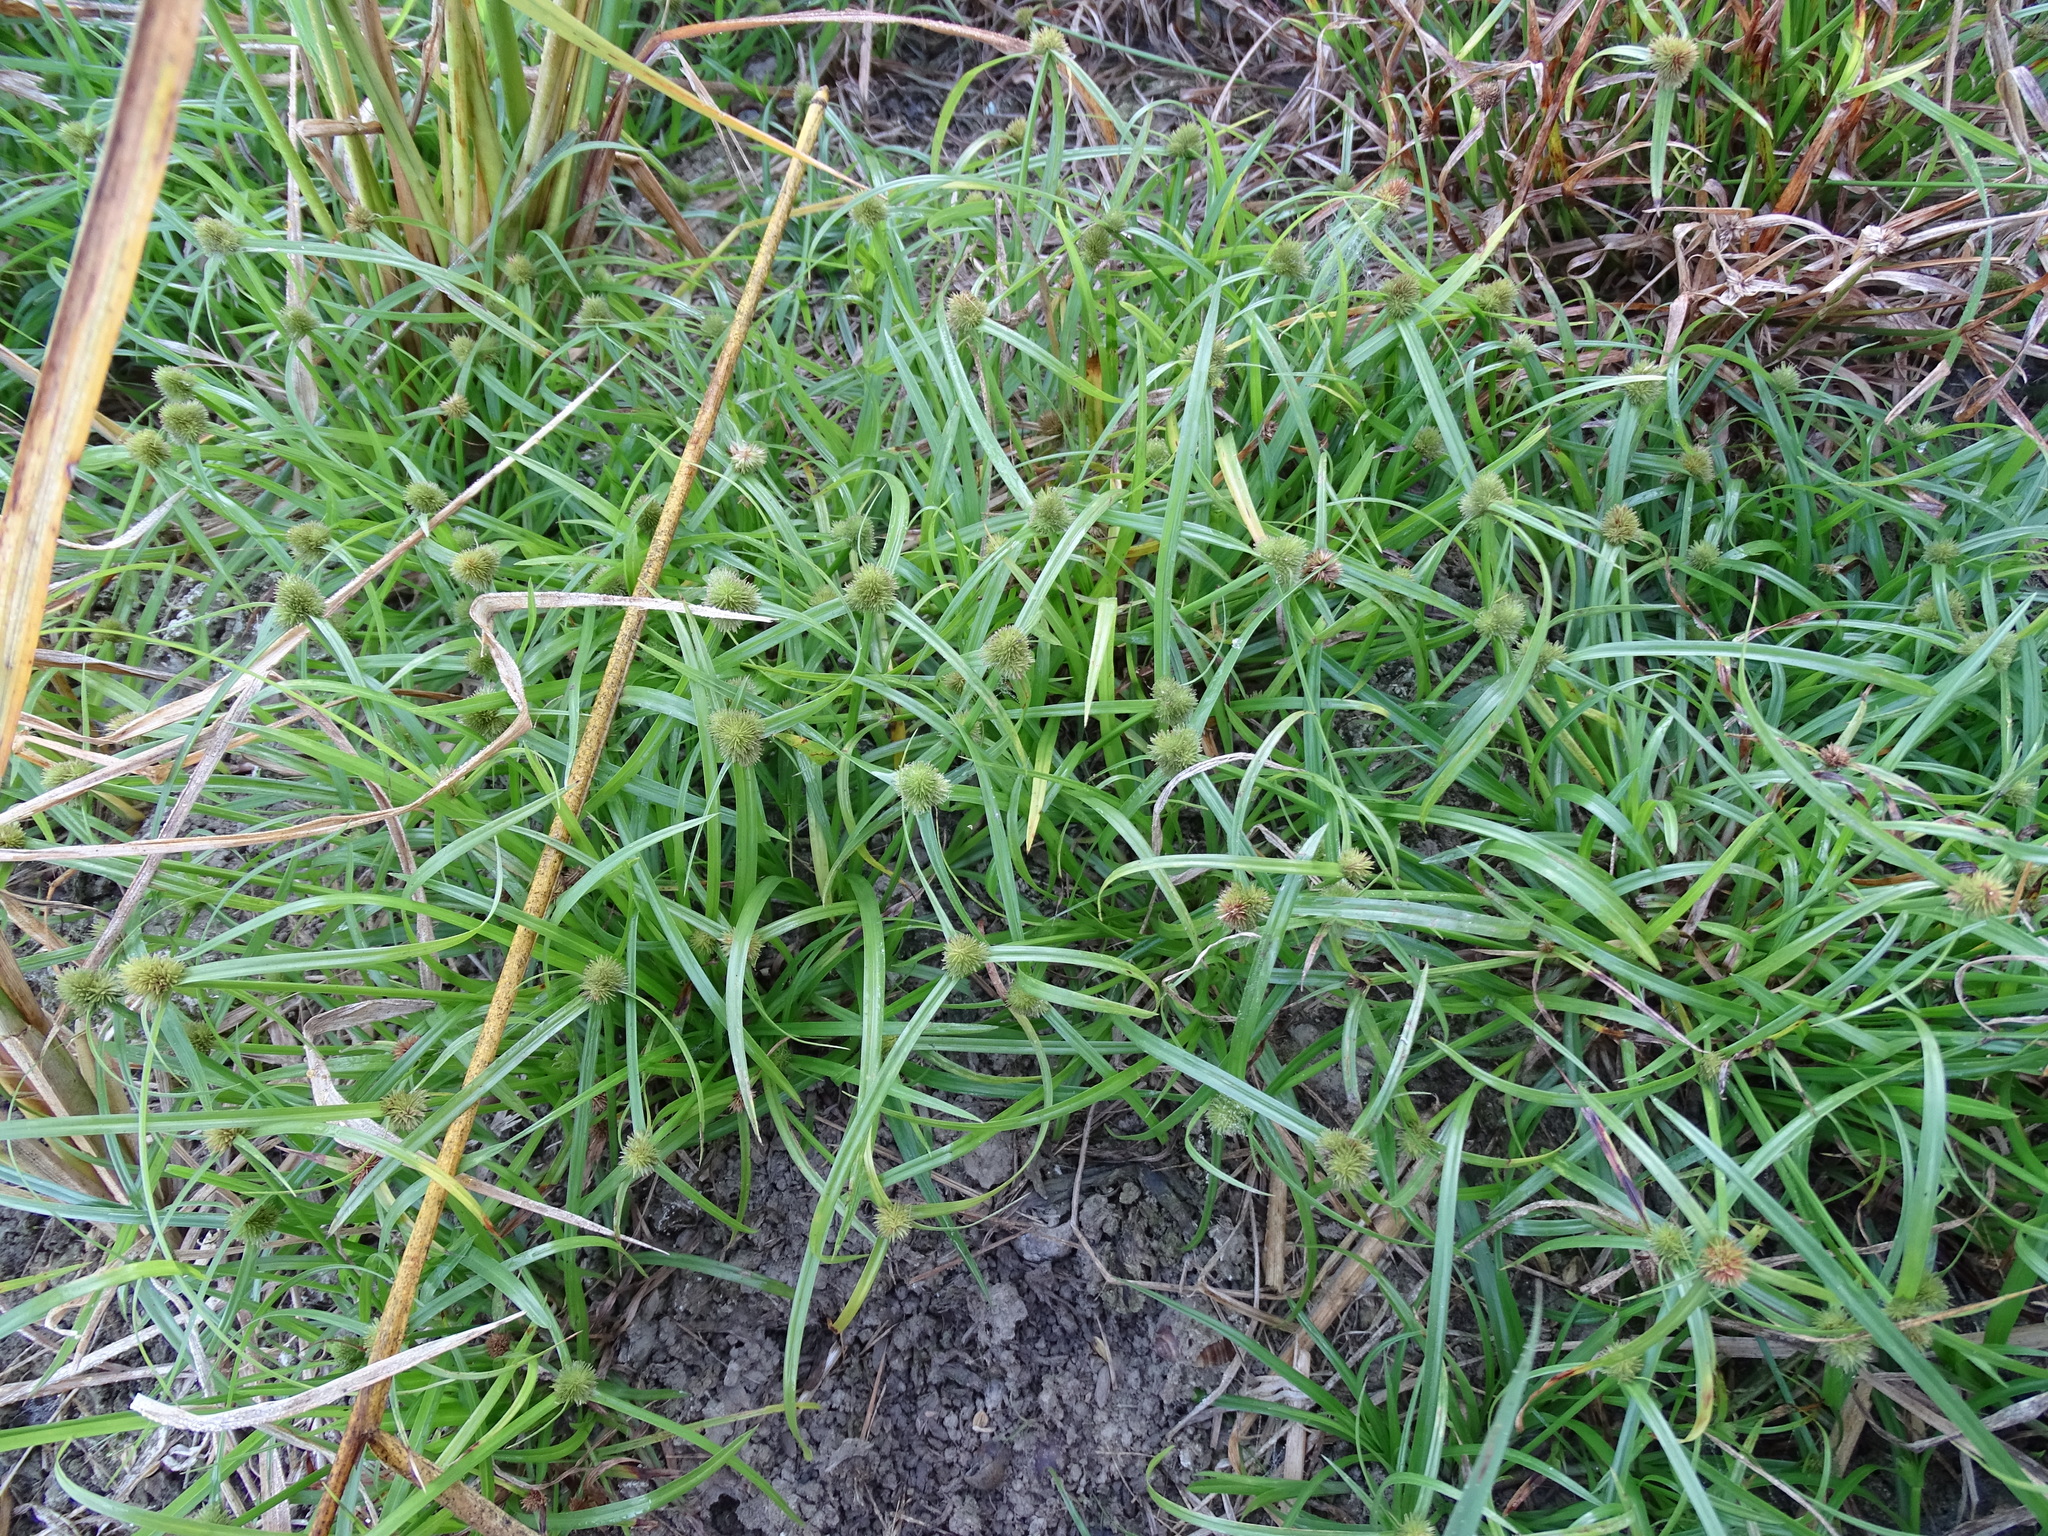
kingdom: Plantae
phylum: Tracheophyta
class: Liliopsida
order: Poales
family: Cyperaceae
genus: Cyperus
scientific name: Cyperus brevifolius
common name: Globe kyllinga
